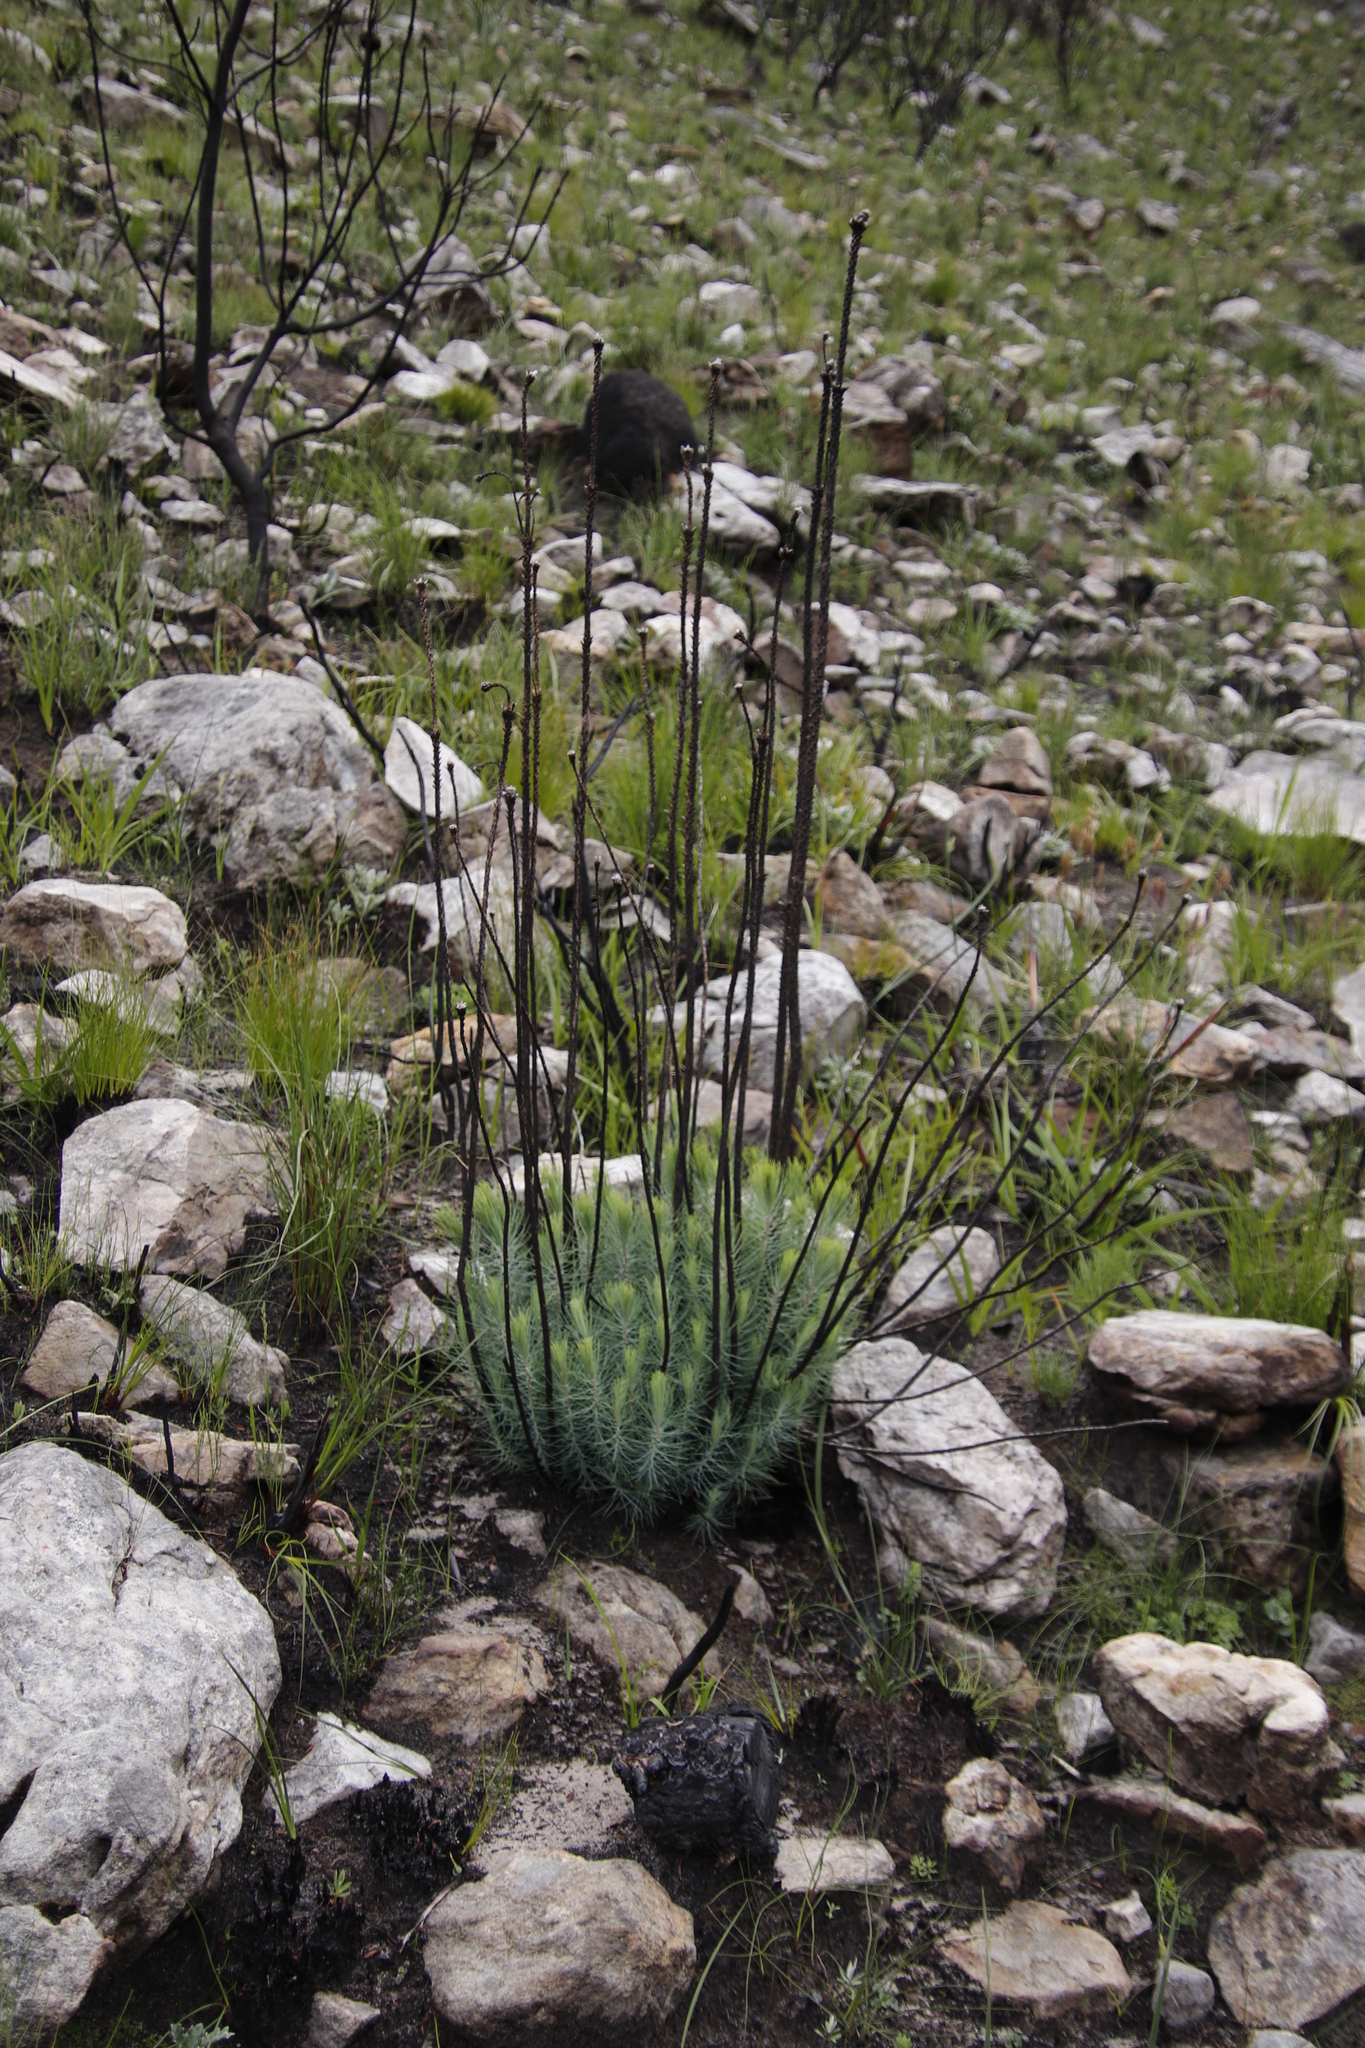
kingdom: Plantae
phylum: Tracheophyta
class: Pinopsida
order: Pinales
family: Pinaceae
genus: Pinus
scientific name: Pinus canariensis
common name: Canary islands pine
